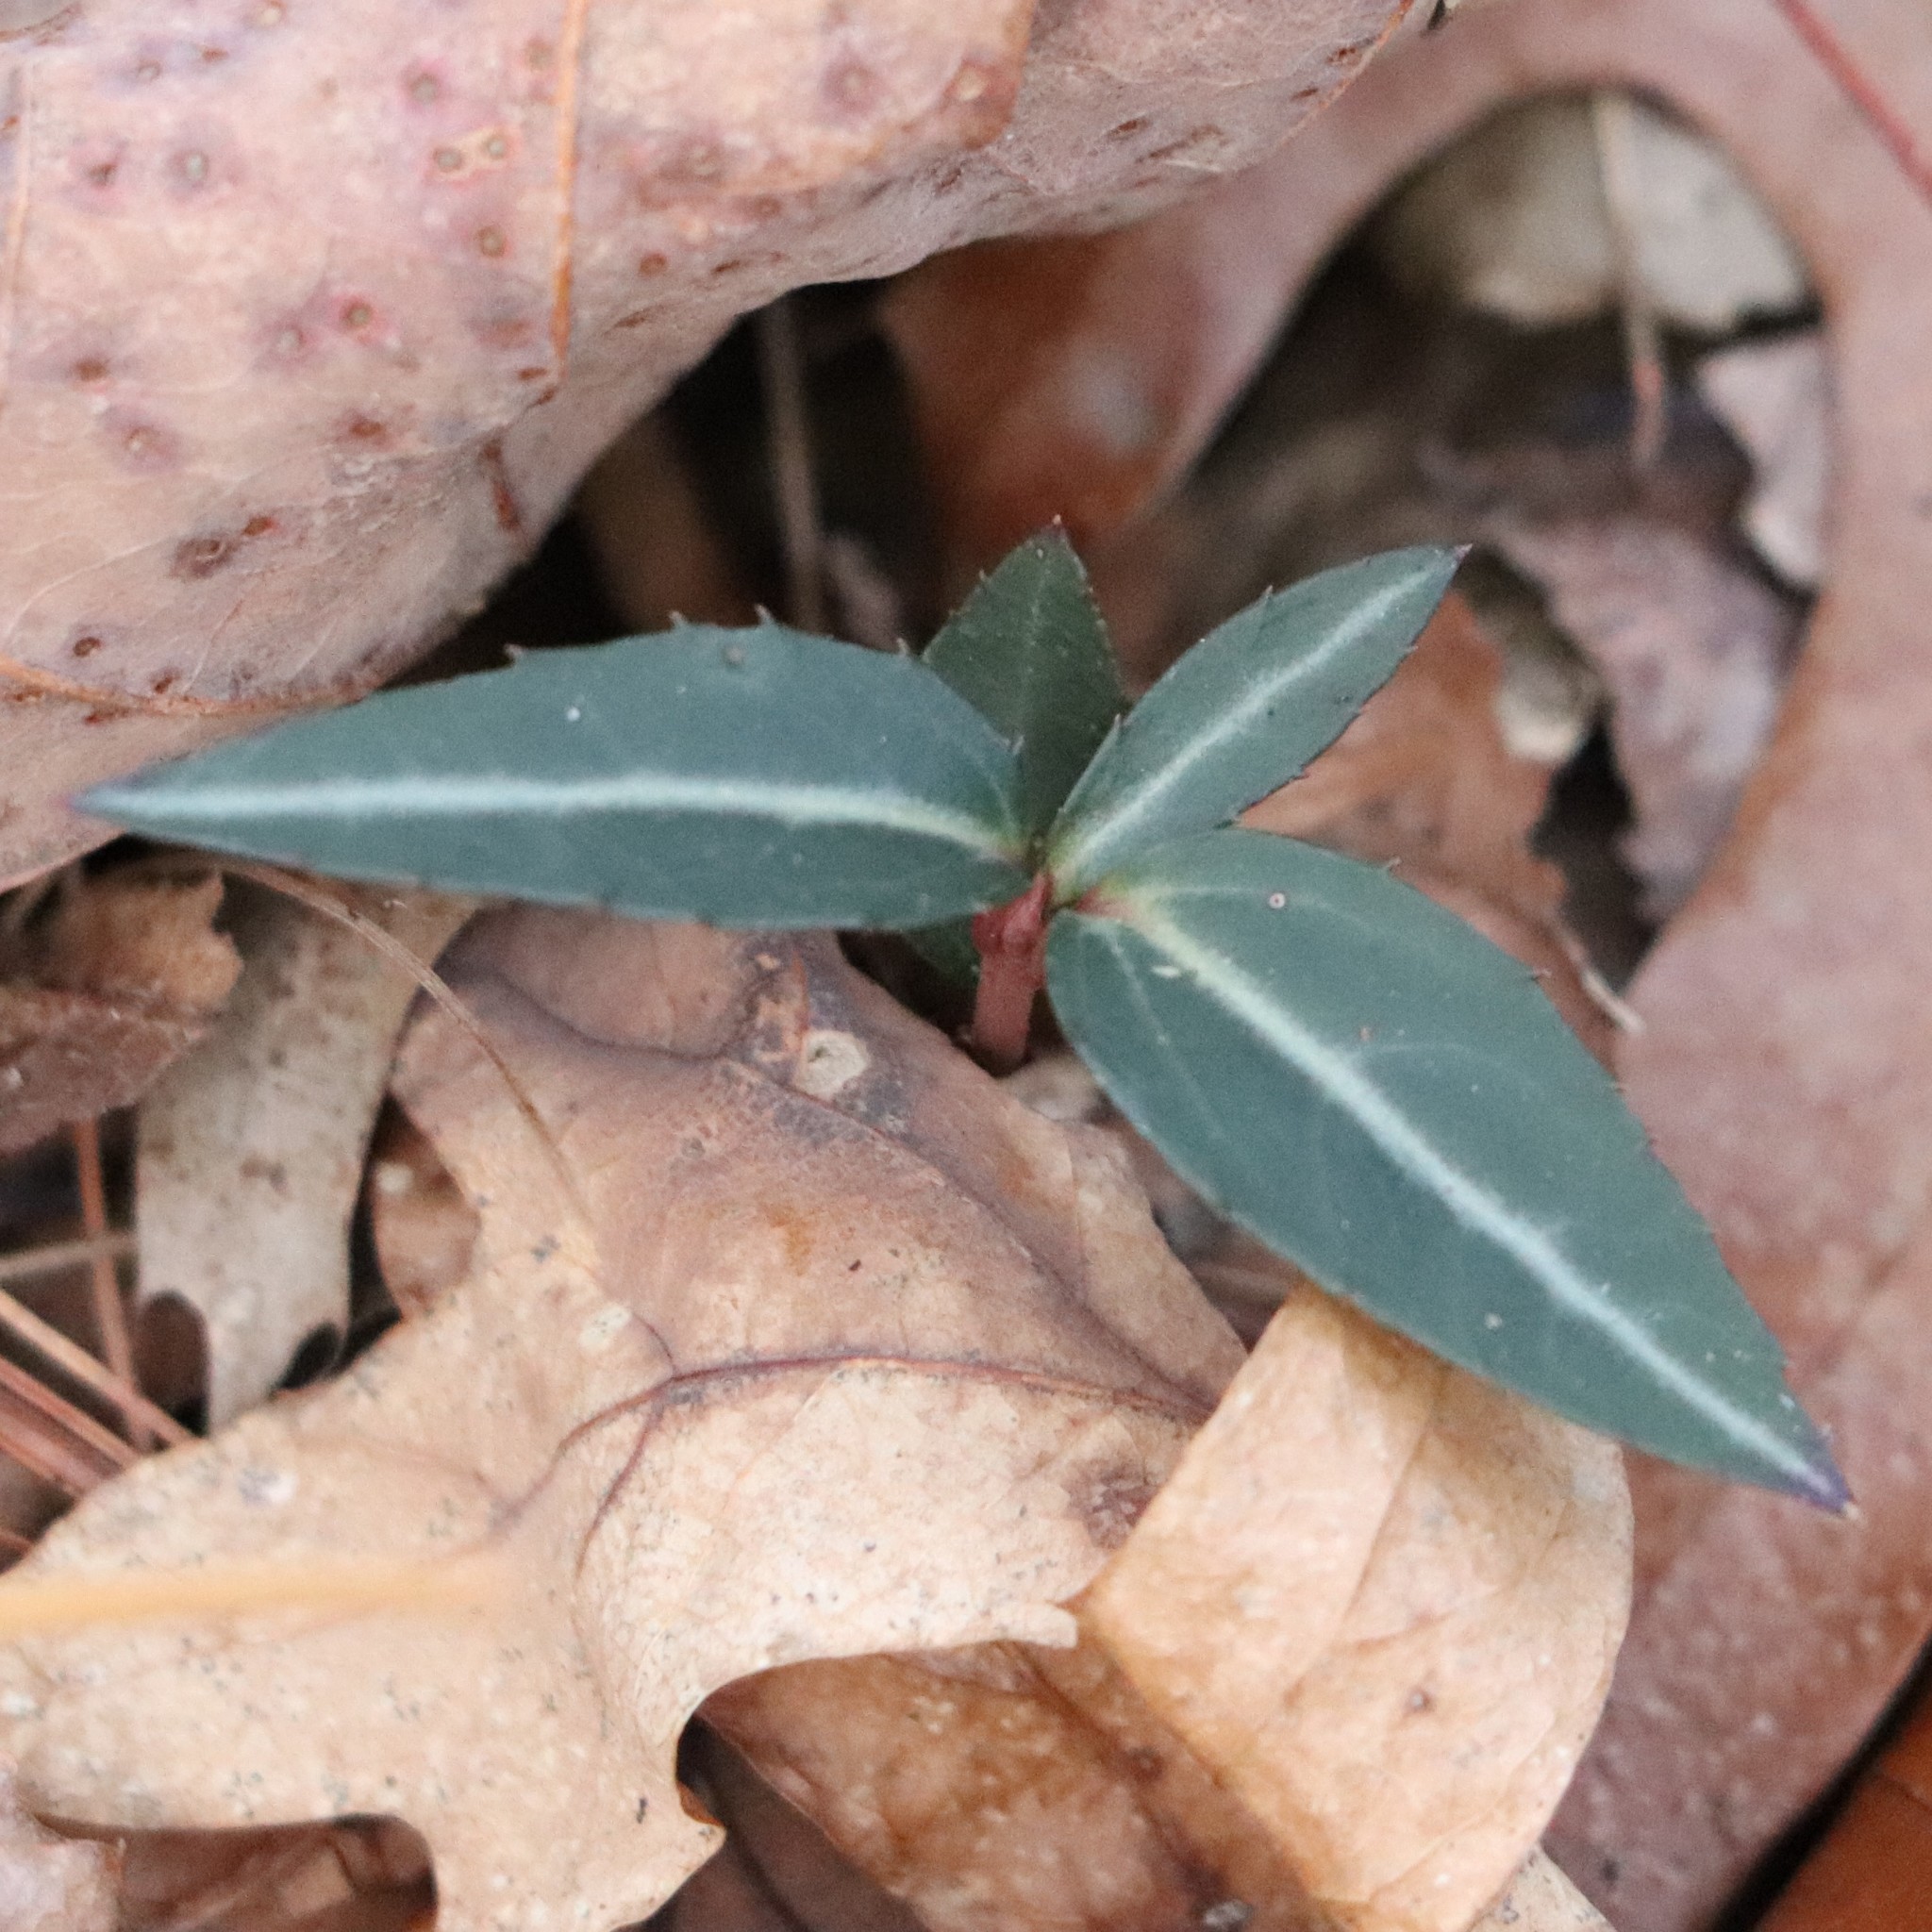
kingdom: Plantae
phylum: Tracheophyta
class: Magnoliopsida
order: Ericales
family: Ericaceae
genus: Chimaphila
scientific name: Chimaphila maculata
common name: Spotted pipsissewa
